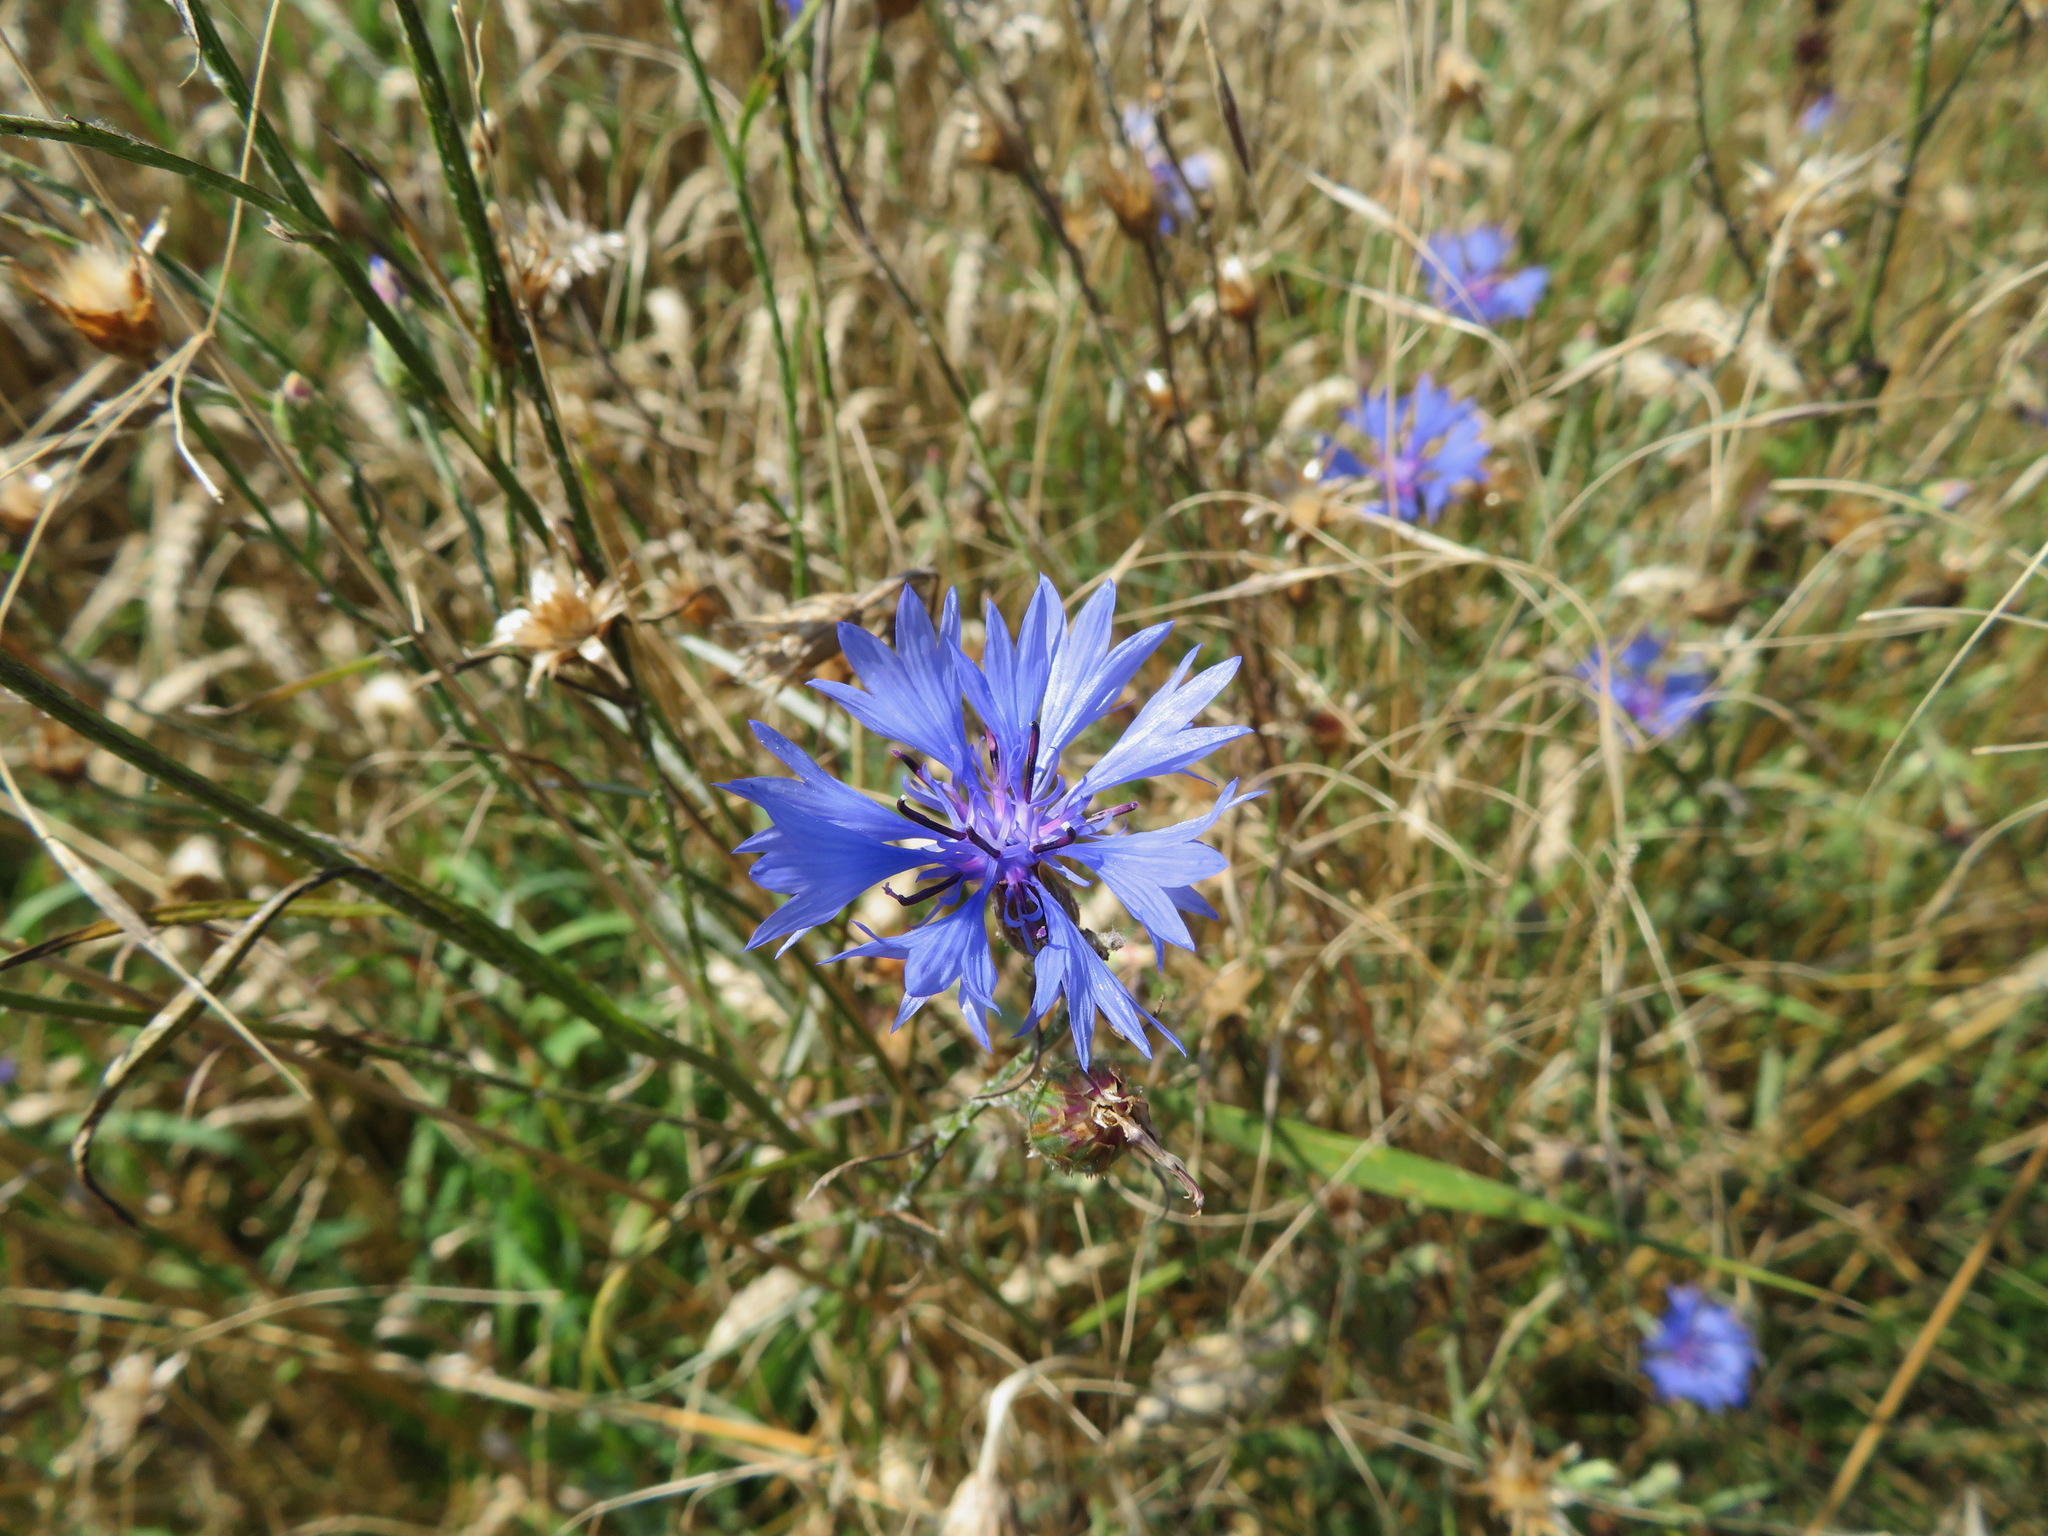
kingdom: Plantae
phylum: Tracheophyta
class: Magnoliopsida
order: Asterales
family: Asteraceae
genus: Centaurea
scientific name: Centaurea cyanus
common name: Cornflower
